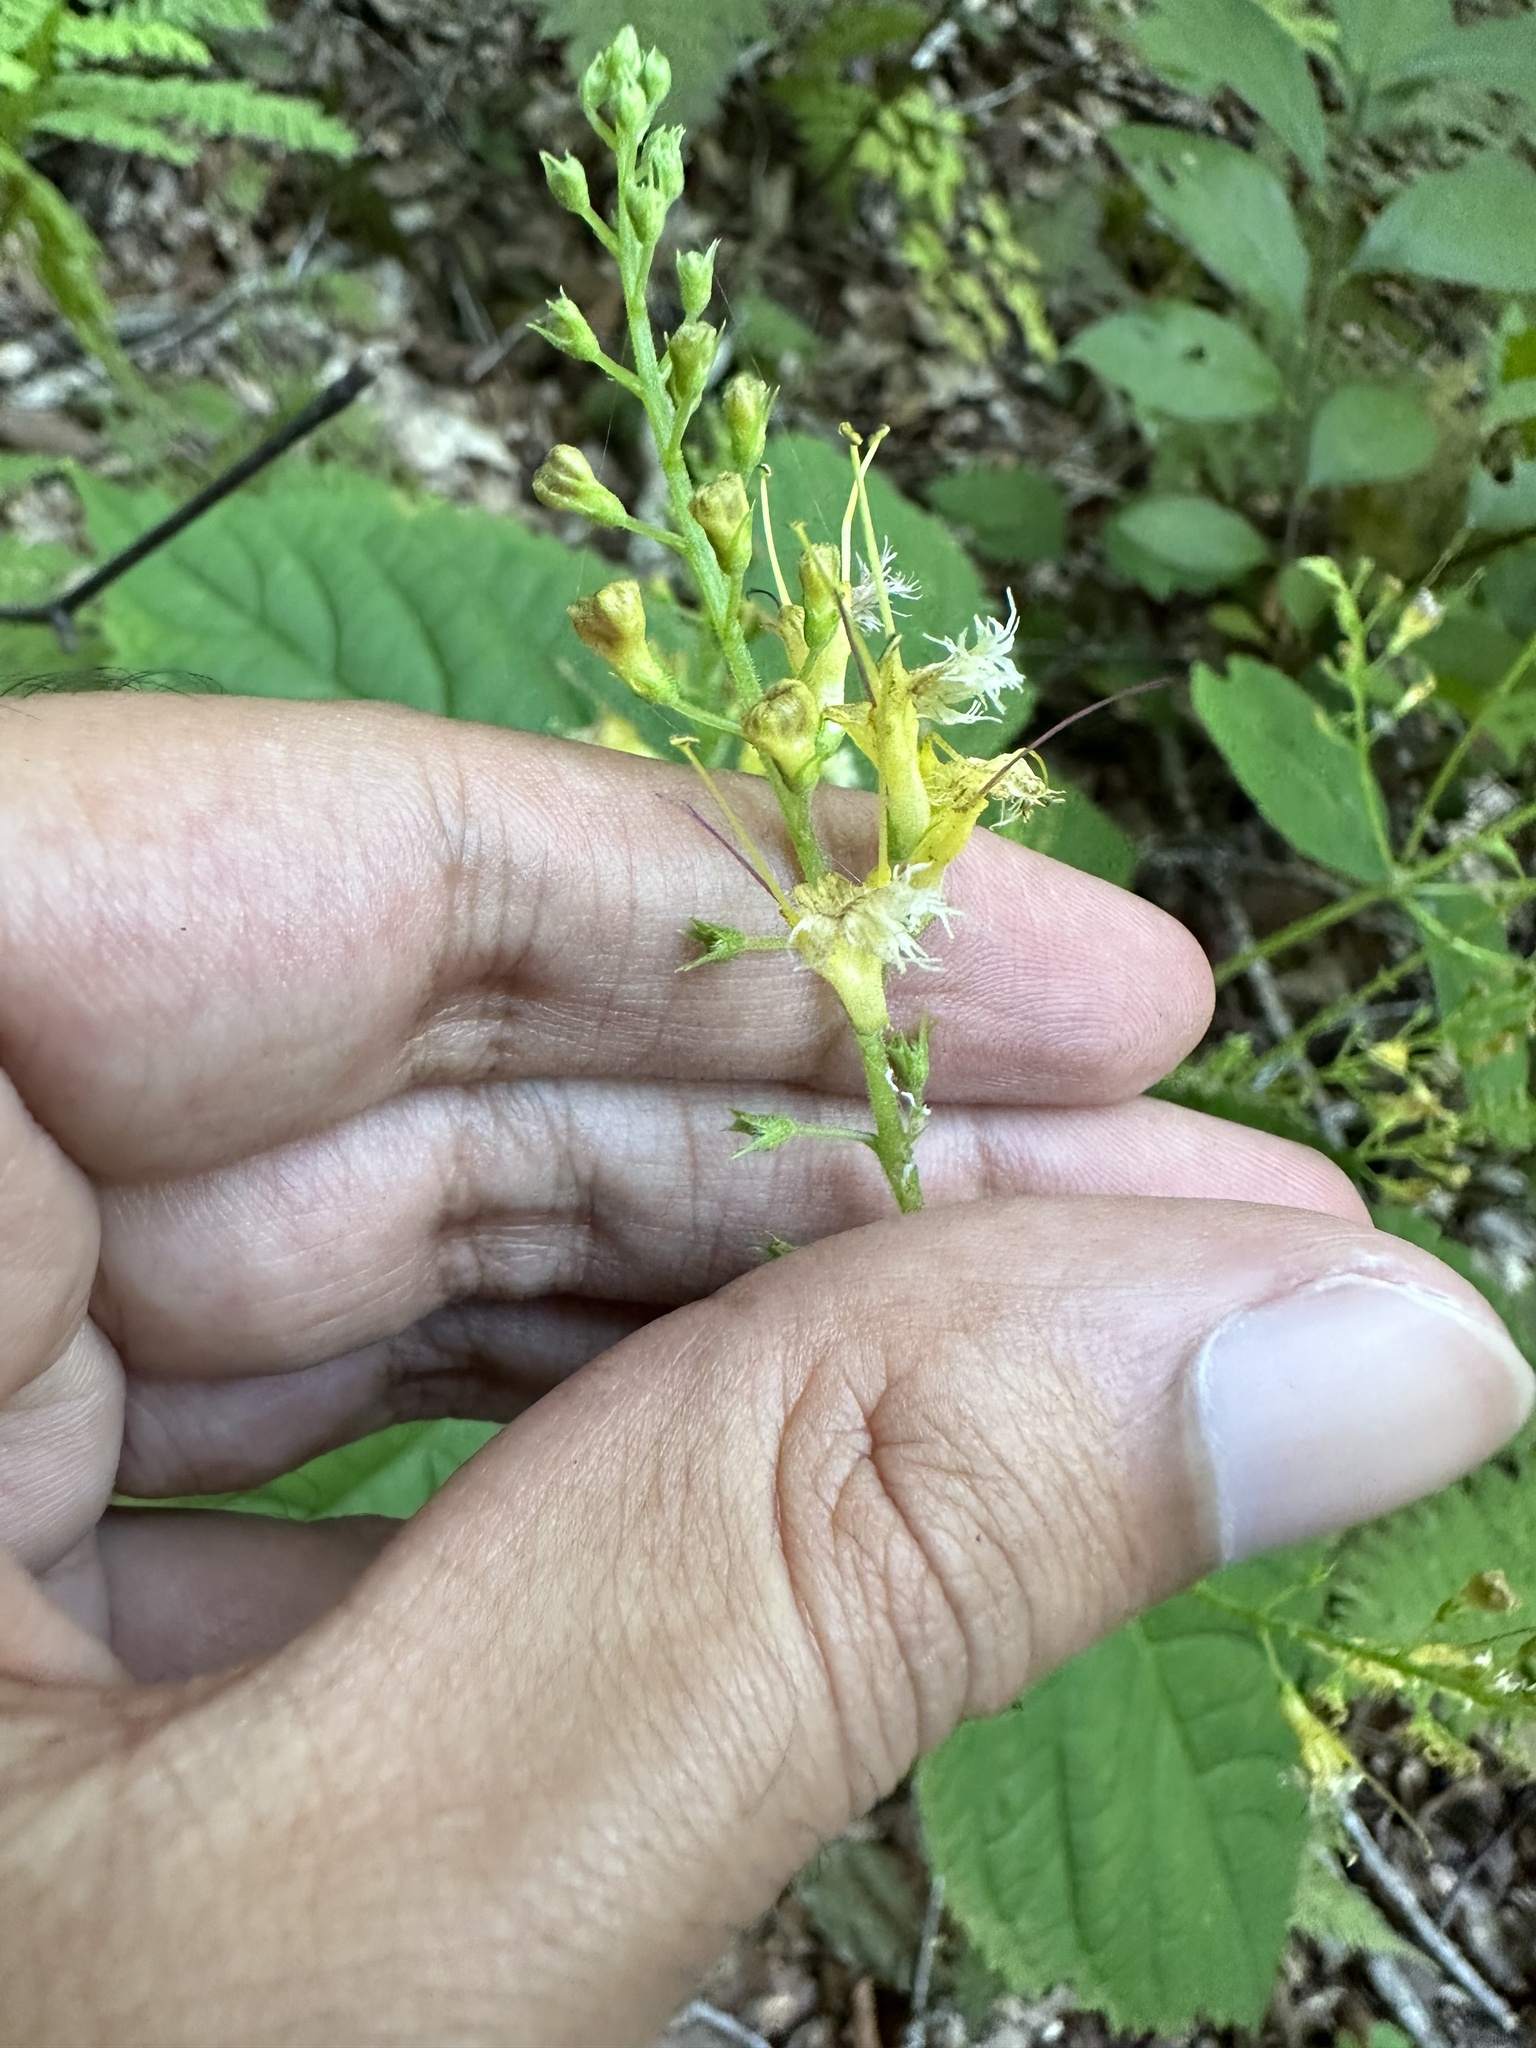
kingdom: Plantae
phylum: Tracheophyta
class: Magnoliopsida
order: Lamiales
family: Lamiaceae
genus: Collinsonia
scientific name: Collinsonia canadensis
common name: Northern horsebalm
